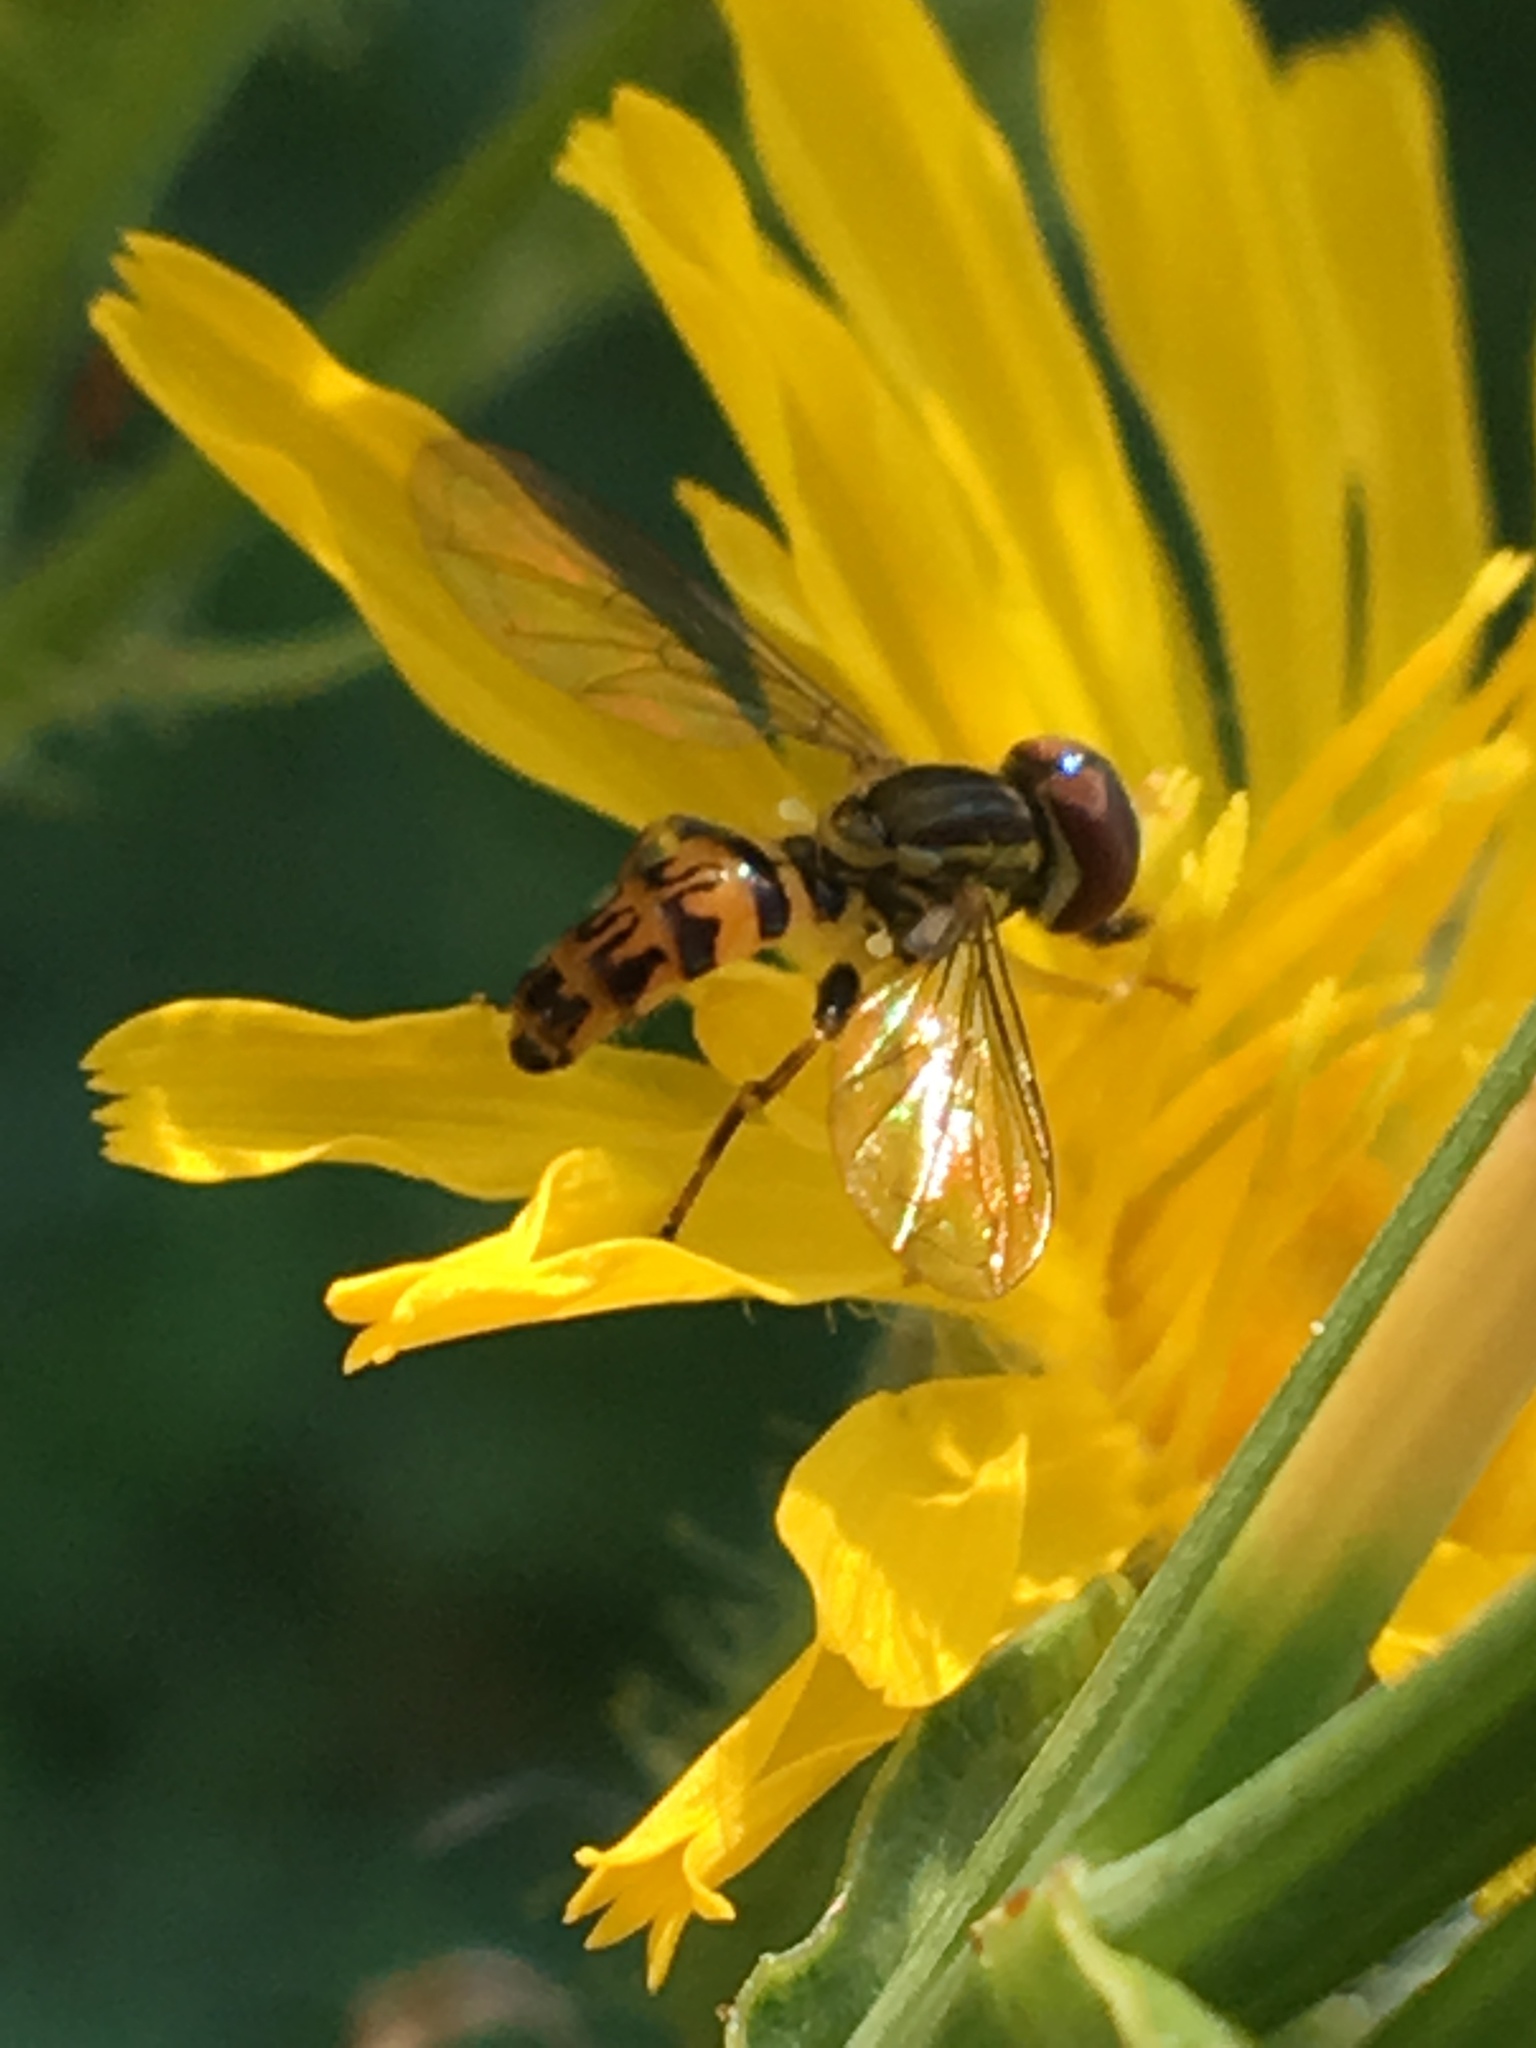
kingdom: Animalia
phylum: Arthropoda
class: Insecta
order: Diptera
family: Syrphidae
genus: Toxomerus
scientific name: Toxomerus geminatus
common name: Eastern calligrapher
